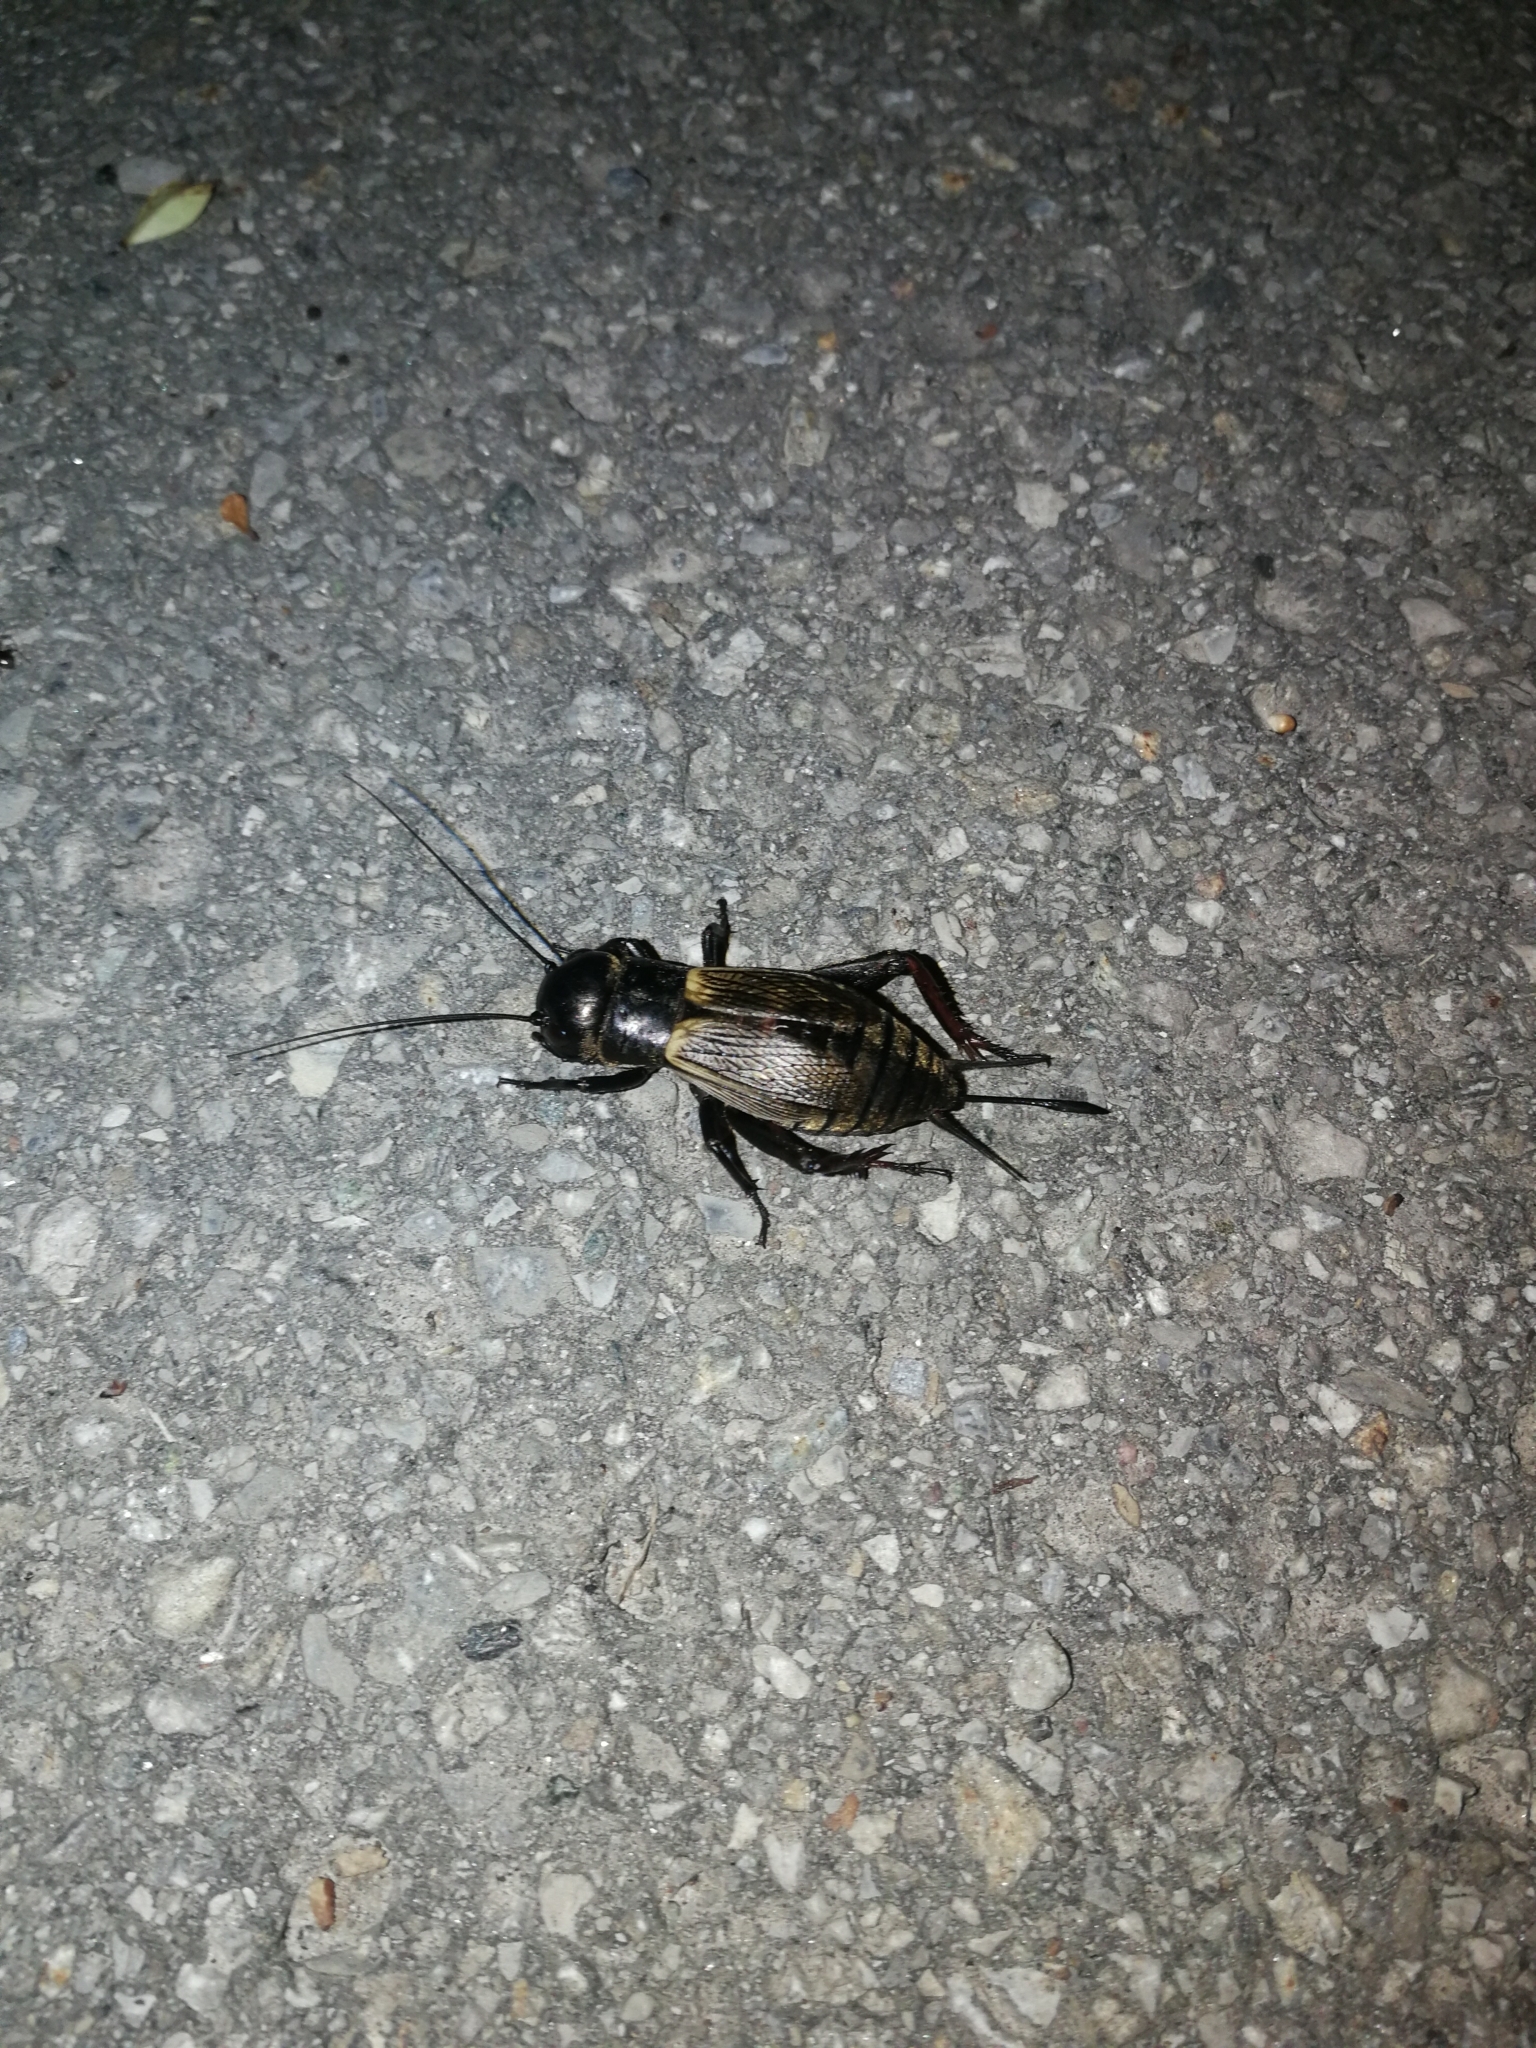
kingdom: Animalia
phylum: Arthropoda
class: Insecta
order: Orthoptera
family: Gryllidae
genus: Gryllus
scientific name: Gryllus campestris
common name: Field cricket
